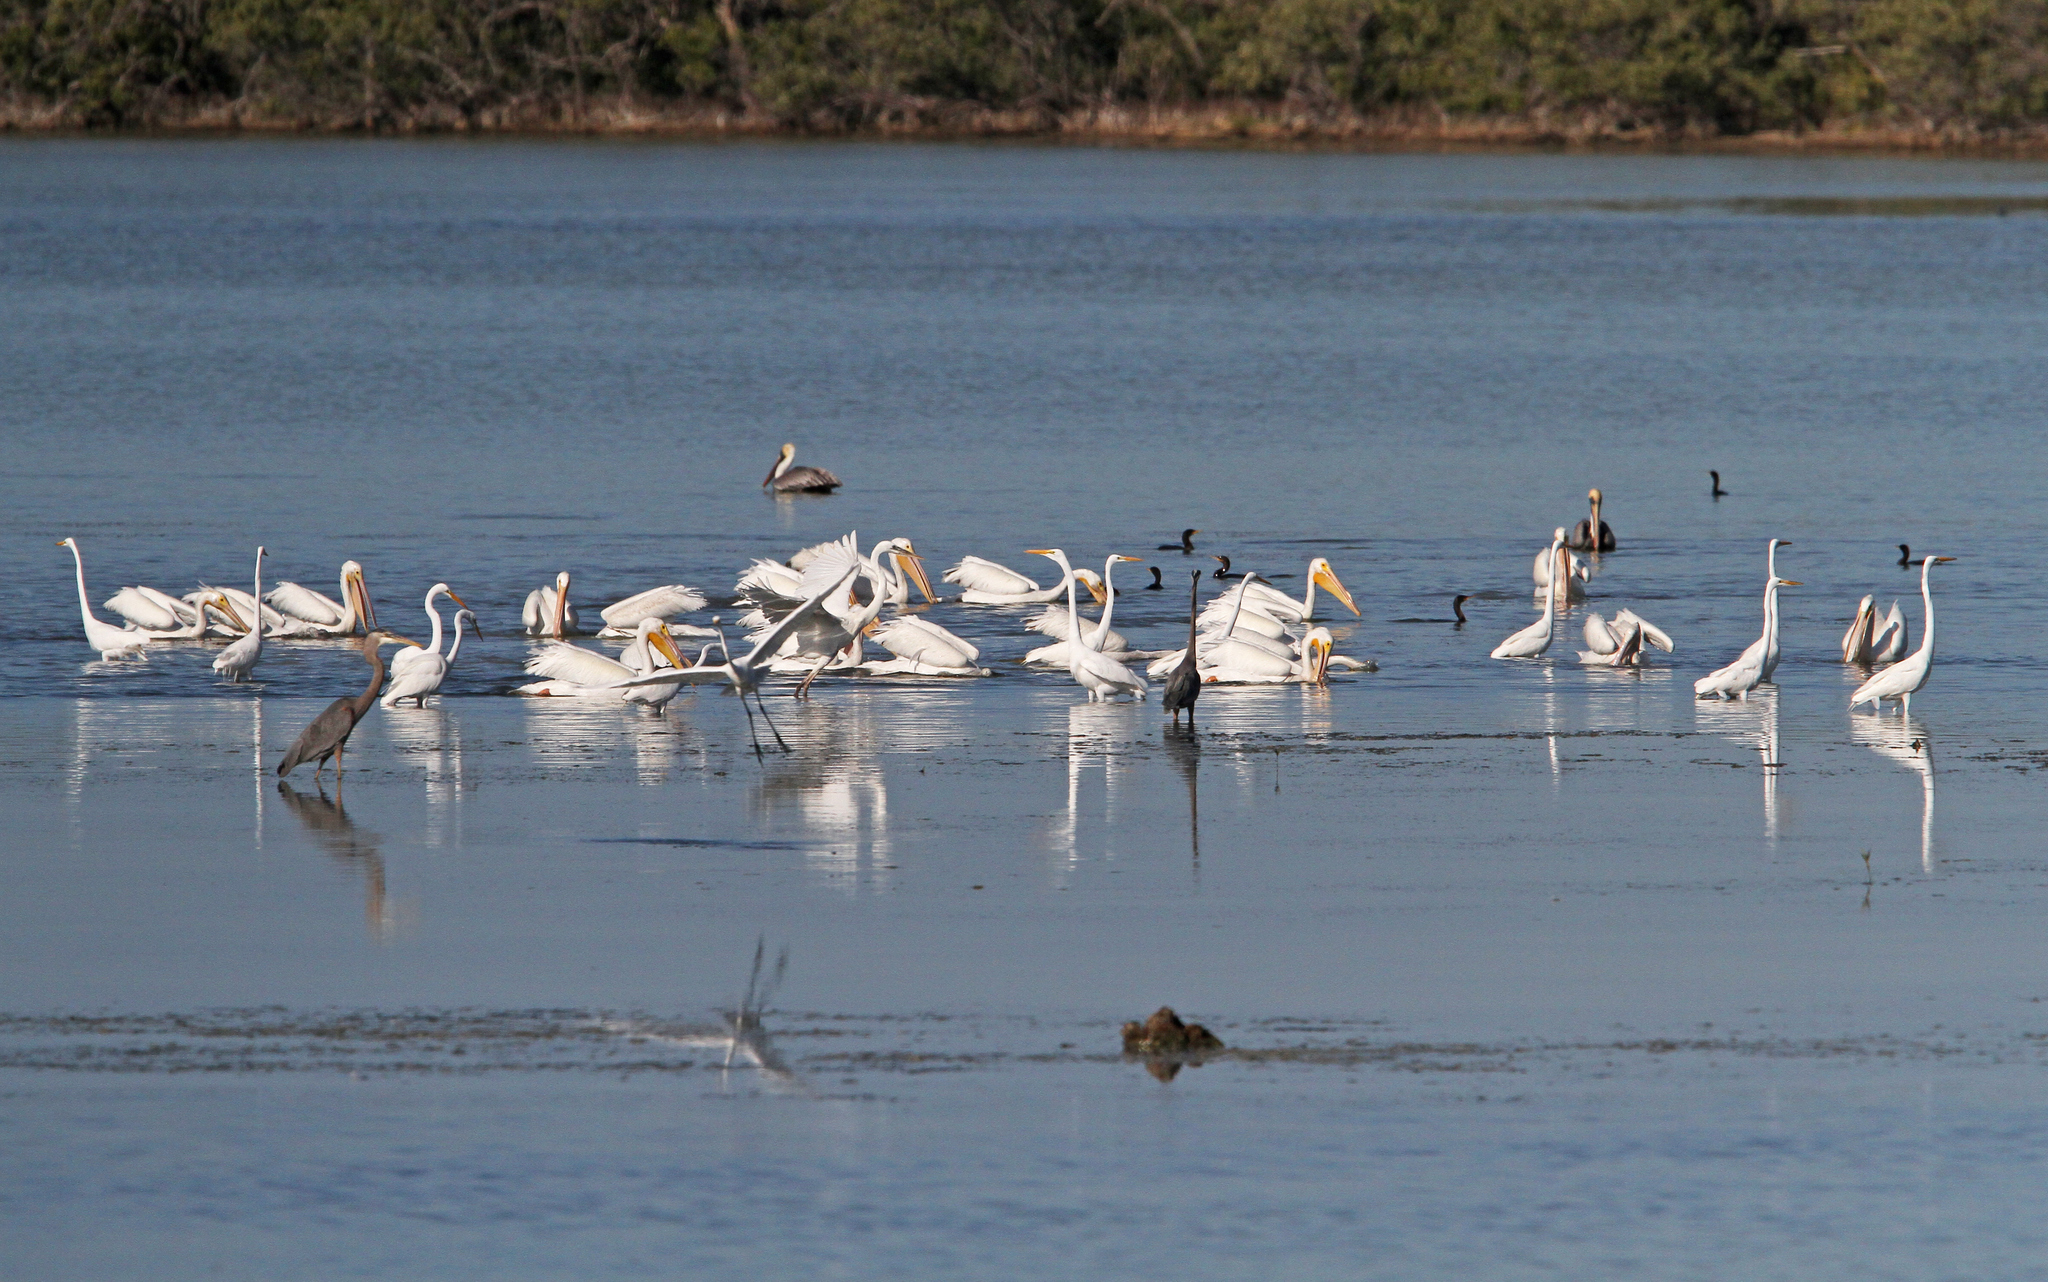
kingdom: Animalia
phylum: Chordata
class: Aves
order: Pelecaniformes
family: Ardeidae
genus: Ardea
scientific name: Ardea alba
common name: Great egret
